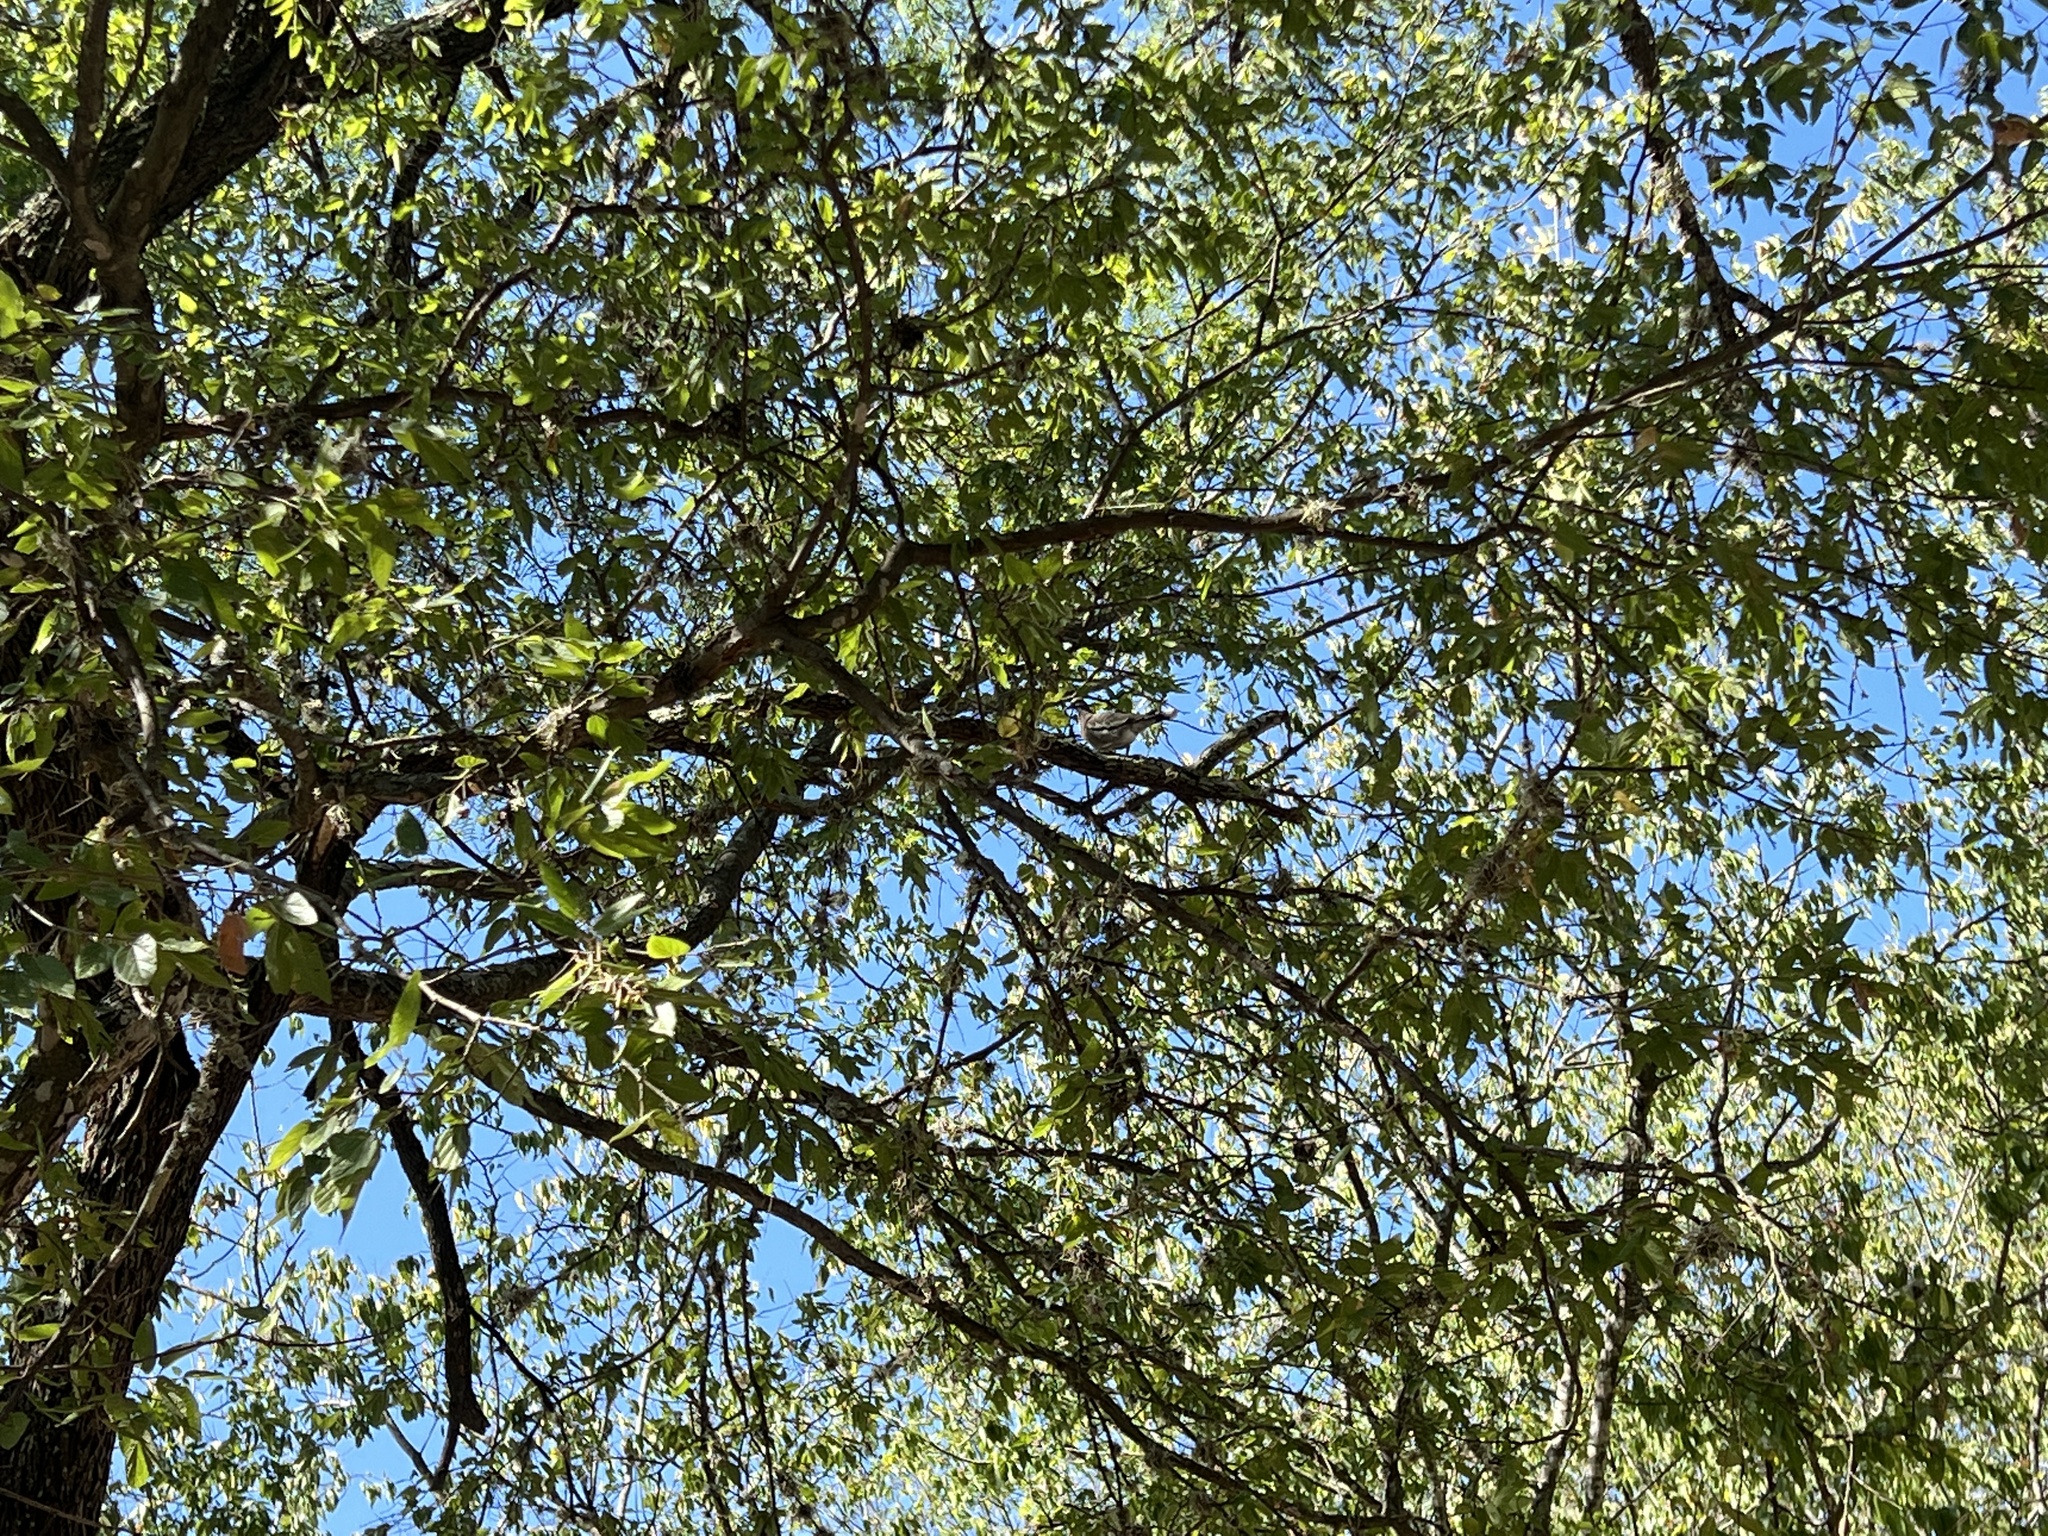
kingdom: Animalia
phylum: Chordata
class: Aves
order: Columbiformes
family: Columbidae
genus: Zenaida
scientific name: Zenaida asiatica
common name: White-winged dove
